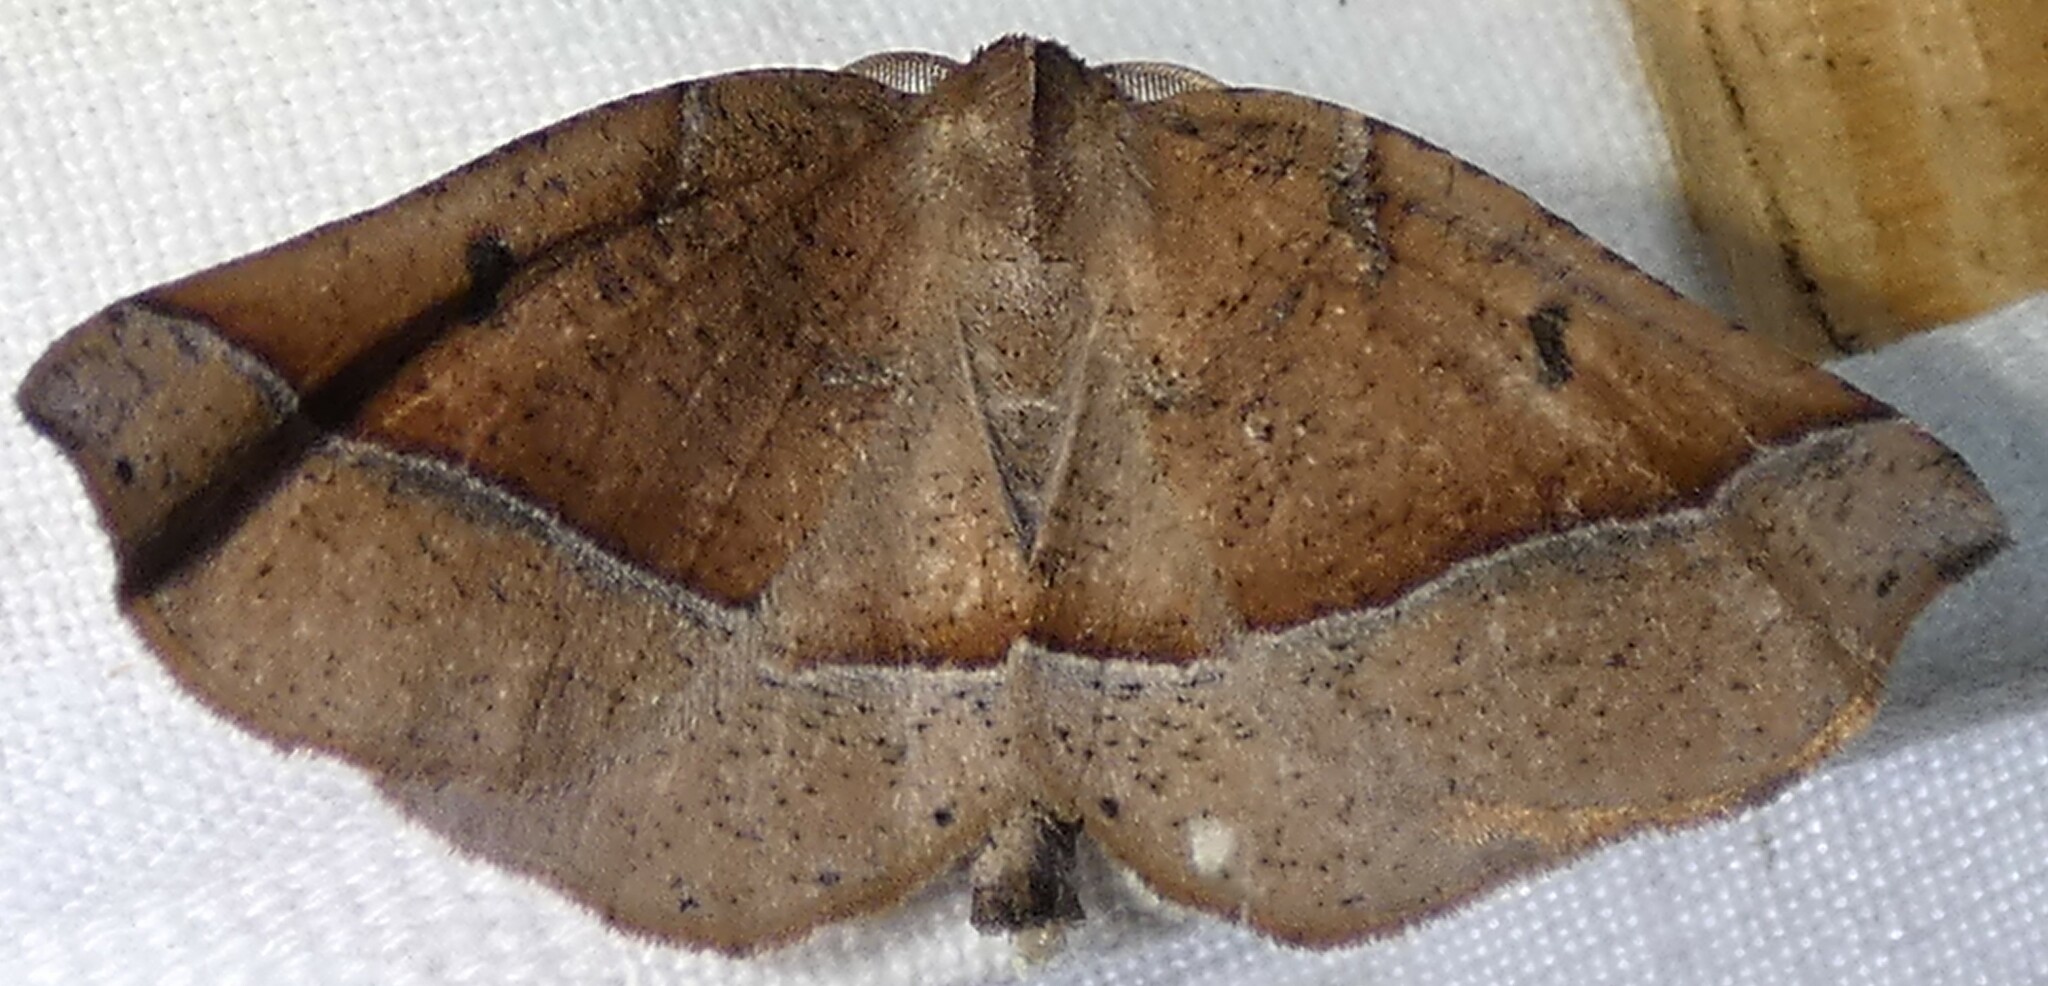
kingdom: Animalia
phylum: Arthropoda
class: Insecta
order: Lepidoptera
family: Geometridae
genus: Pero
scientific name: Pero
